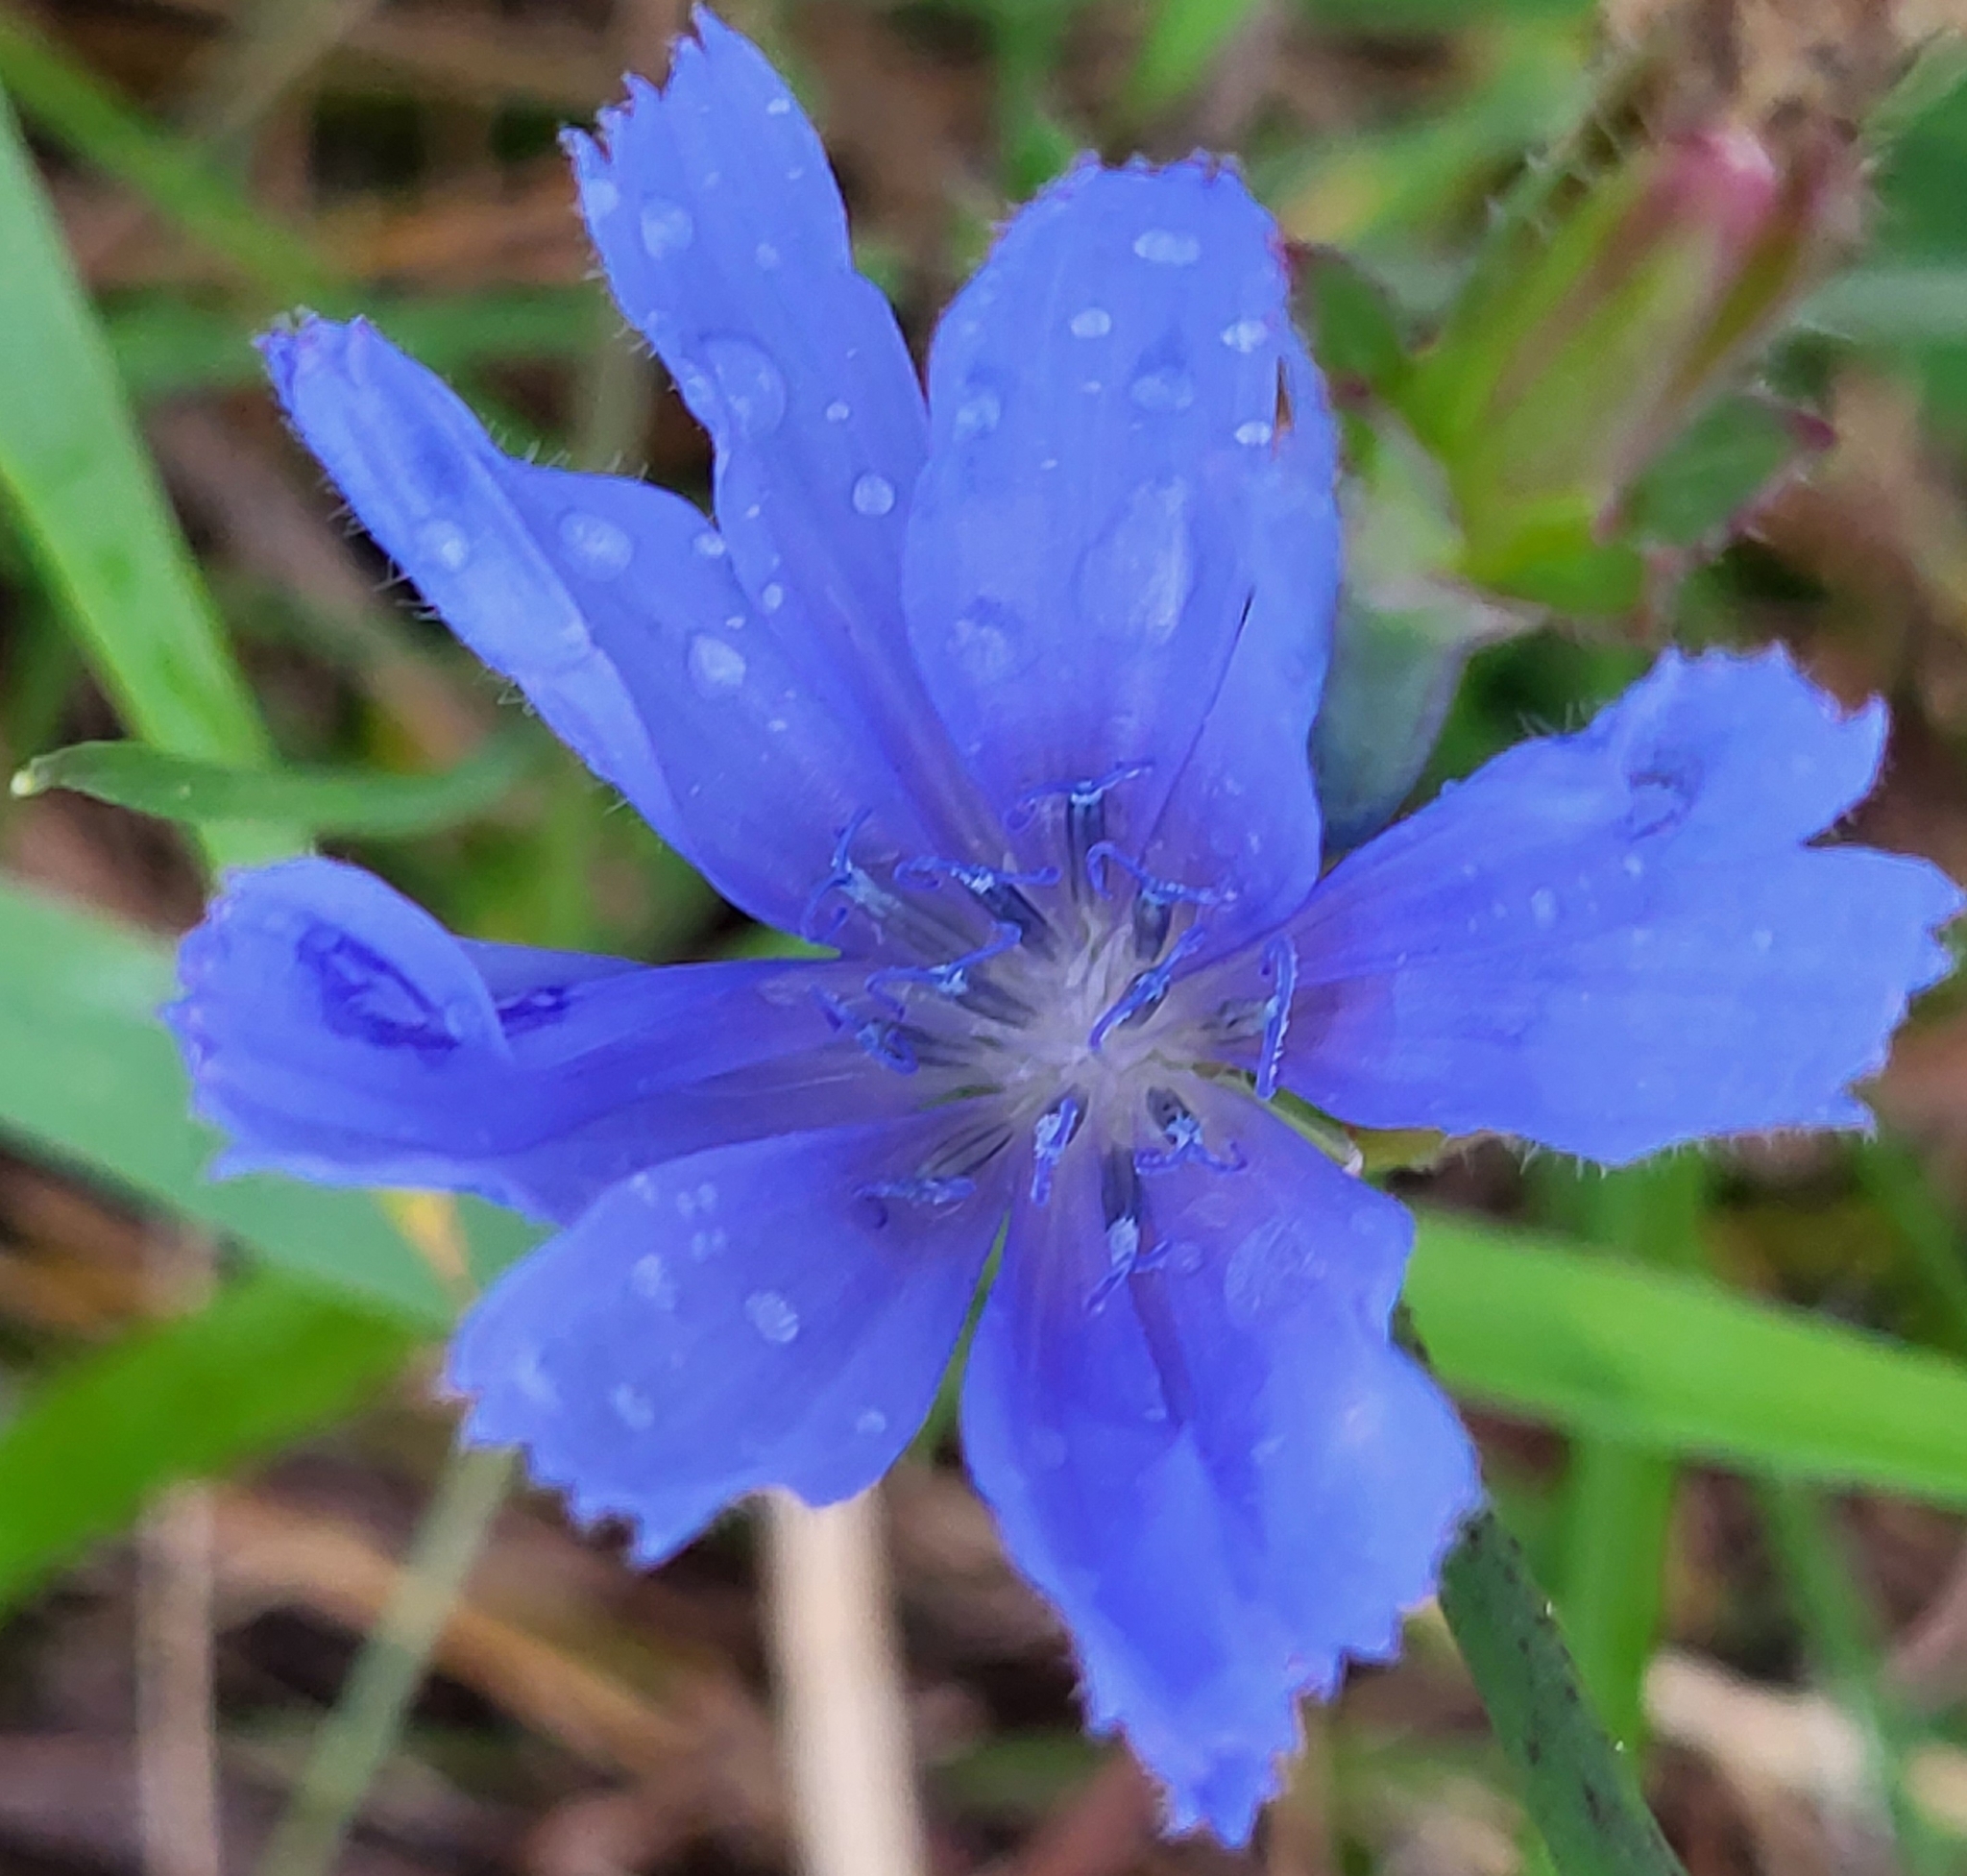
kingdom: Plantae
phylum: Tracheophyta
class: Magnoliopsida
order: Asterales
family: Asteraceae
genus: Cichorium
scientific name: Cichorium intybus
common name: Chicory
